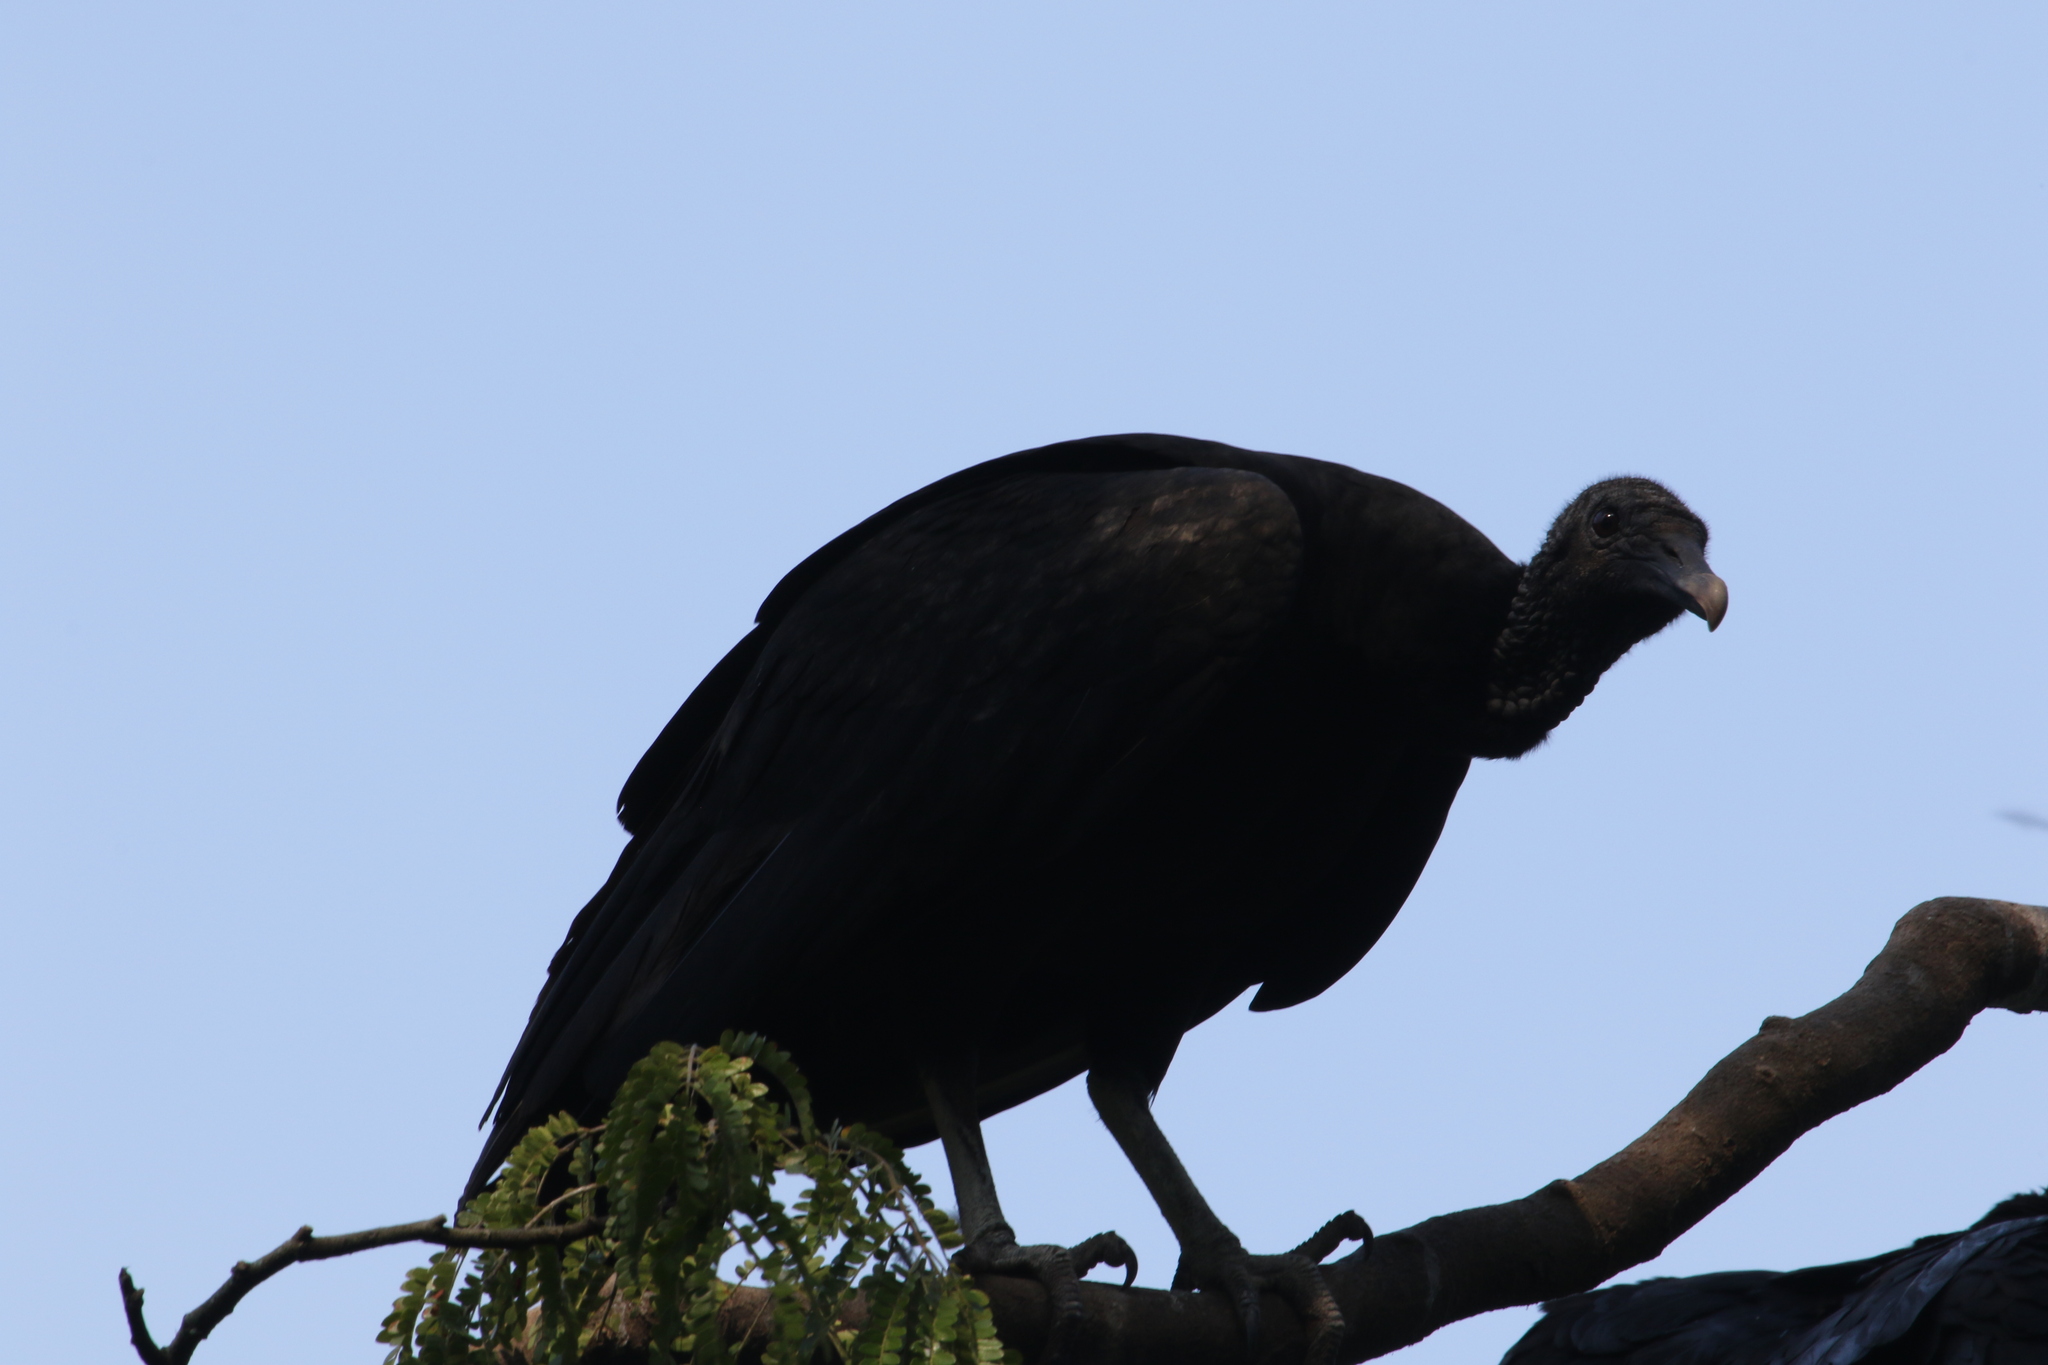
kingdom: Animalia
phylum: Chordata
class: Aves
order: Accipitriformes
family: Cathartidae
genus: Coragyps
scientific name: Coragyps atratus
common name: Black vulture
